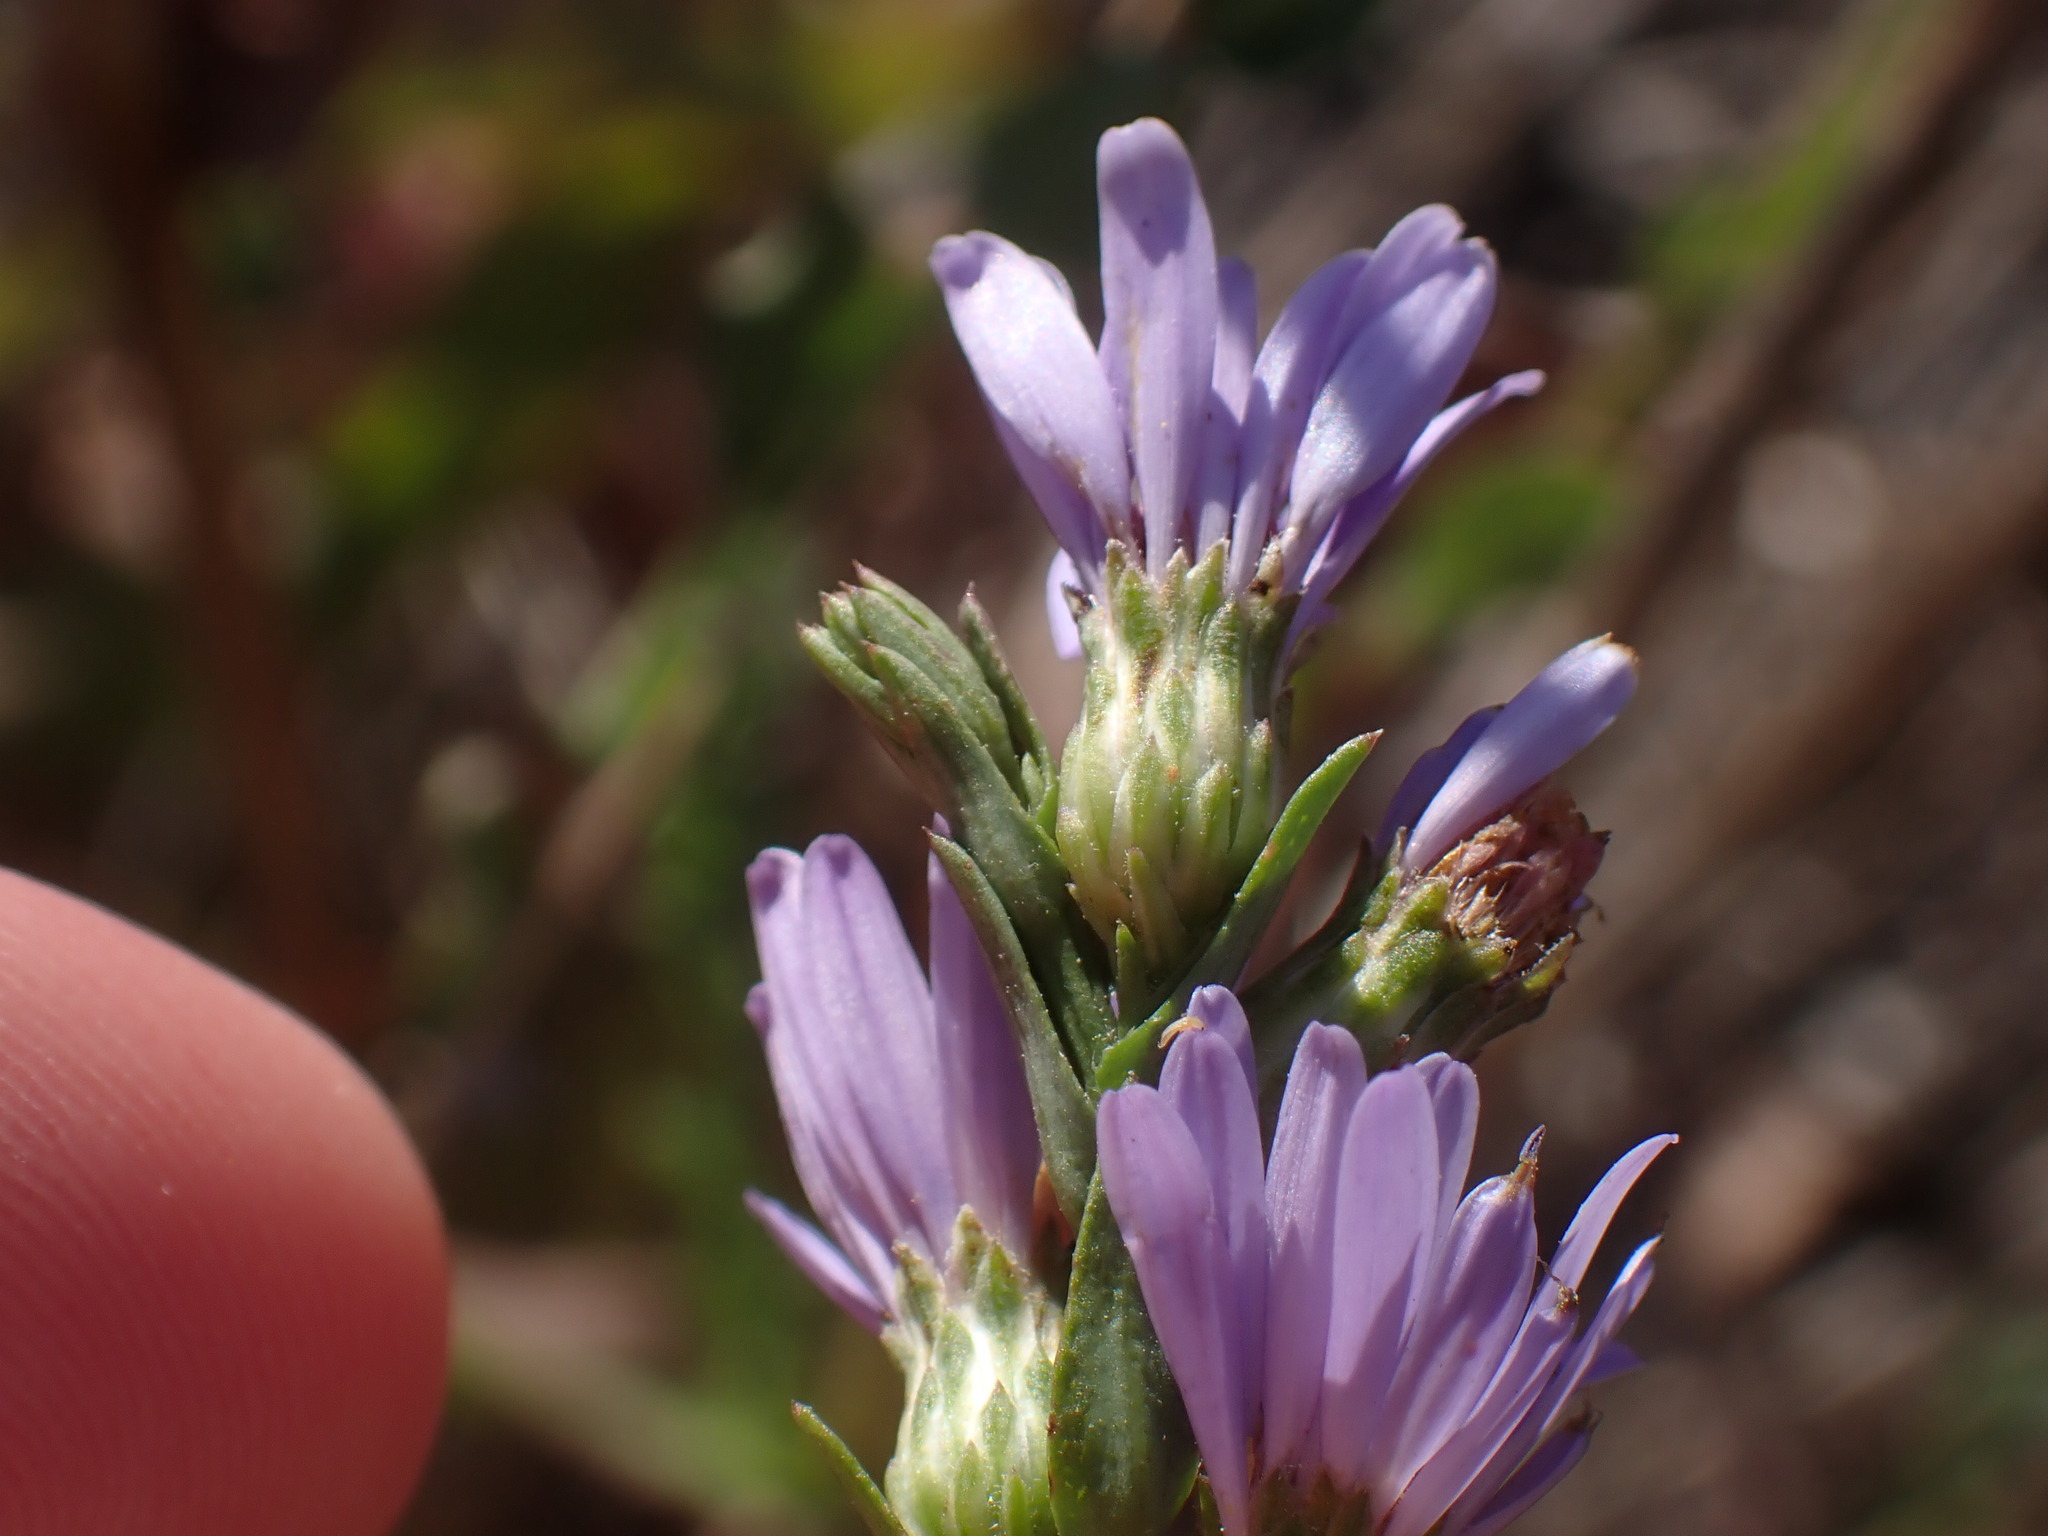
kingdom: Plantae
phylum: Tracheophyta
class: Magnoliopsida
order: Asterales
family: Asteraceae
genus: Symphyotrichum
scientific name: Symphyotrichum laeve
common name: Glaucous aster
